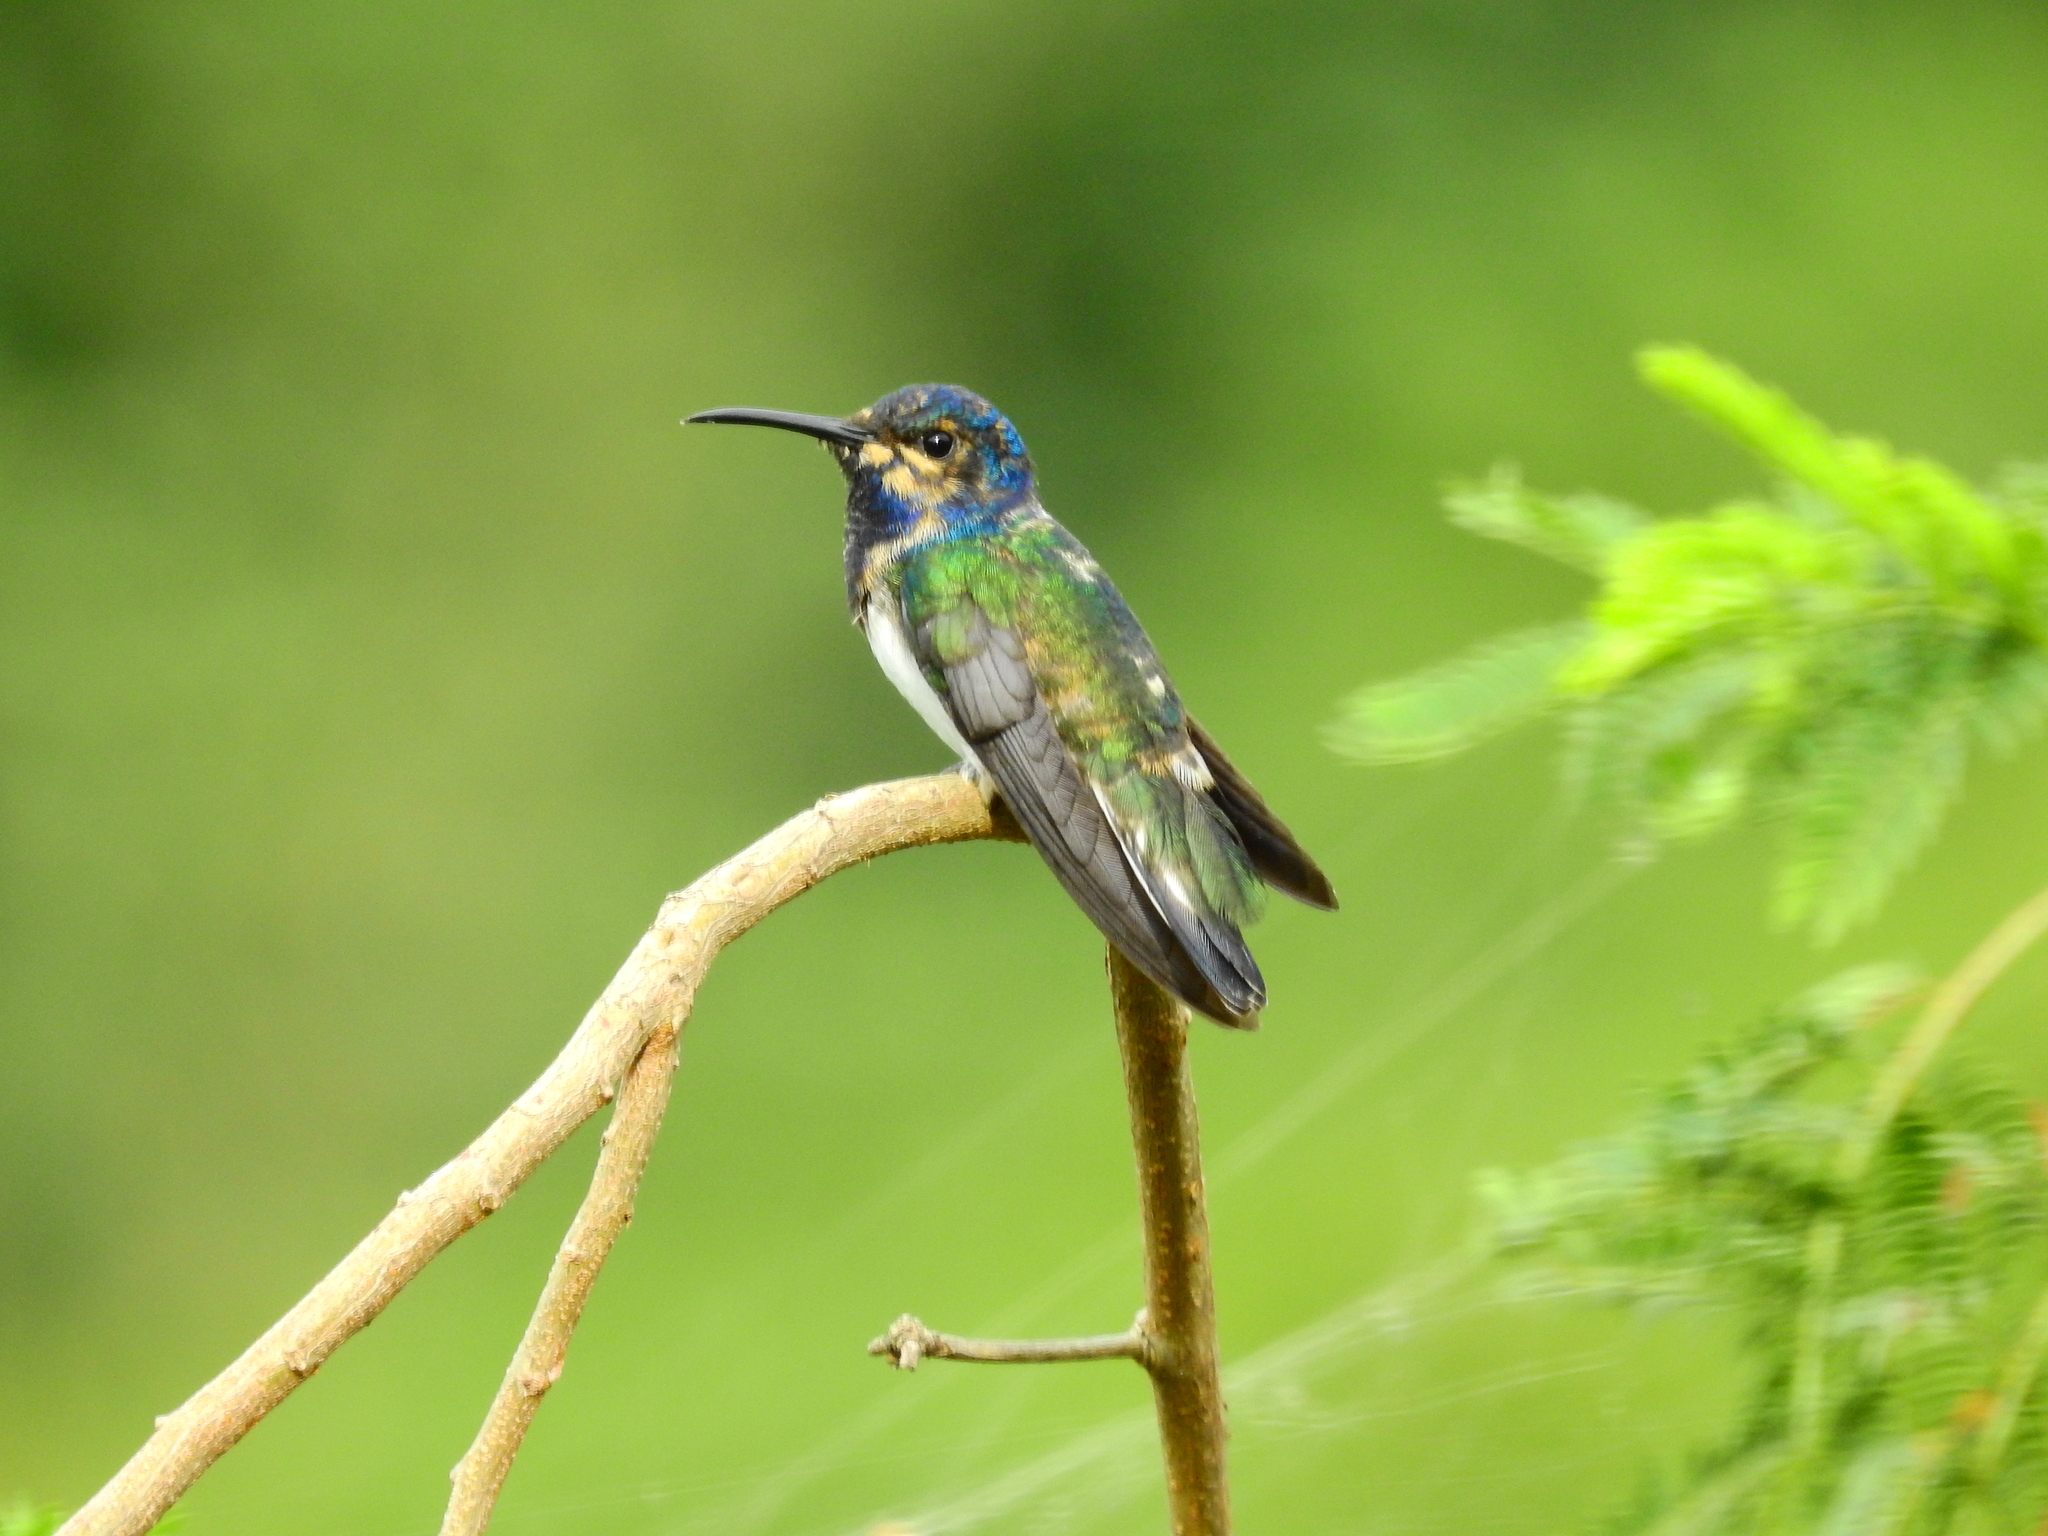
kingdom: Animalia
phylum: Chordata
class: Aves
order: Apodiformes
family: Trochilidae
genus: Florisuga
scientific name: Florisuga mellivora
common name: White-necked jacobin
